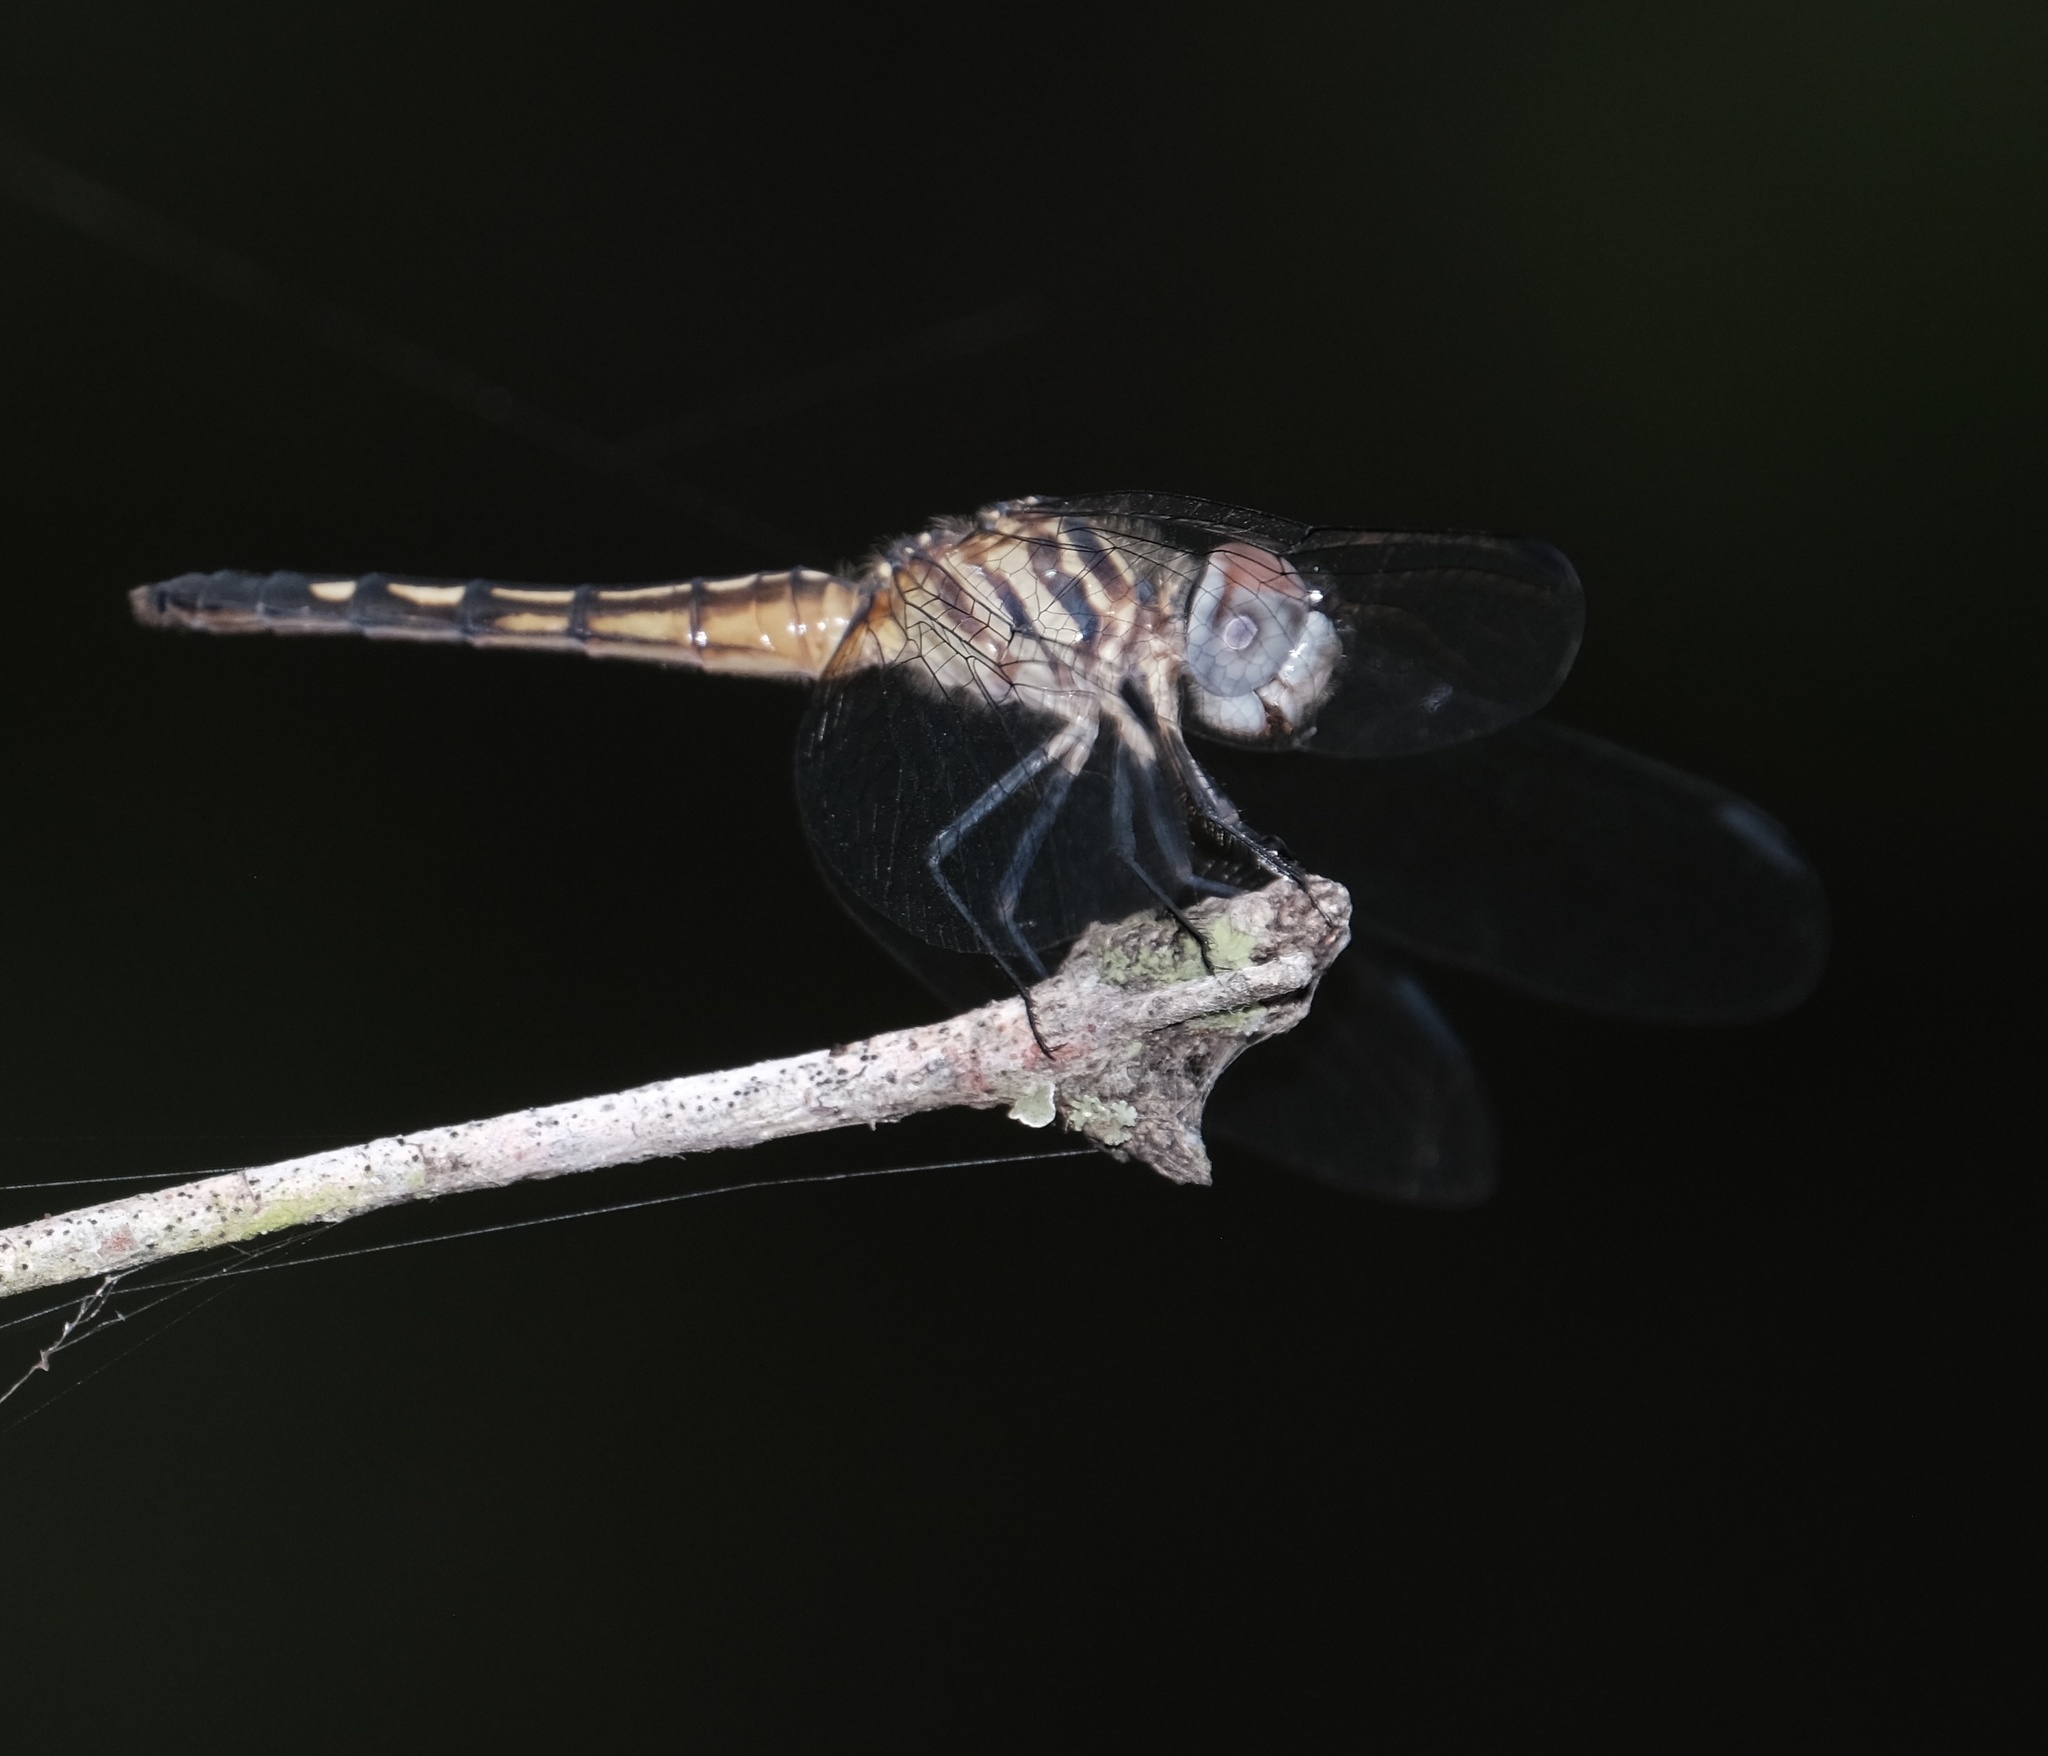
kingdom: Animalia
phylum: Arthropoda
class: Insecta
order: Odonata
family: Libellulidae
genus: Pachydiplax
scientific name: Pachydiplax longipennis
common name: Blue dasher
